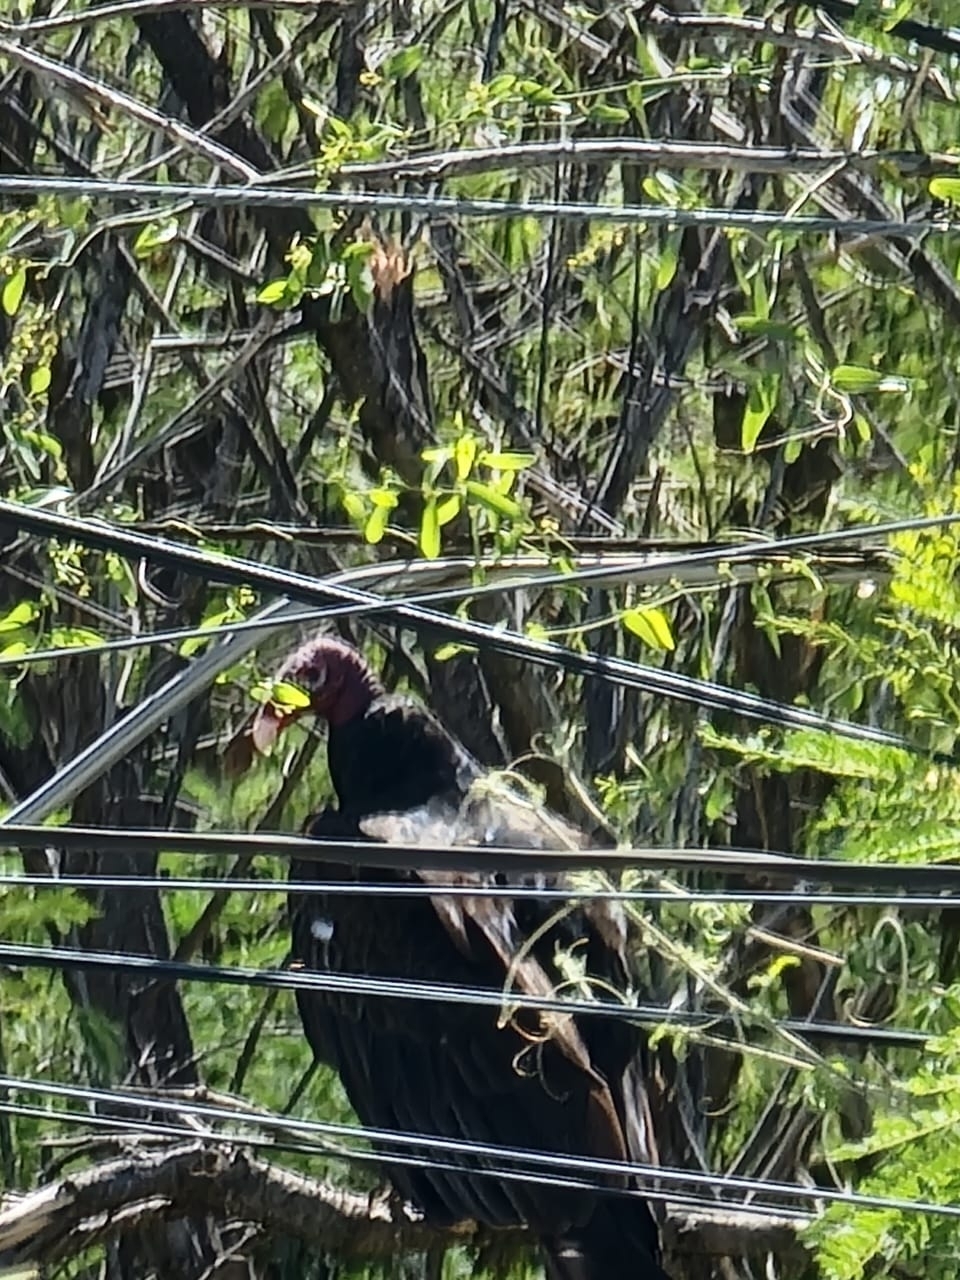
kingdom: Animalia
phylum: Chordata
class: Aves
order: Accipitriformes
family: Cathartidae
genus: Cathartes
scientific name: Cathartes aura
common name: Turkey vulture
